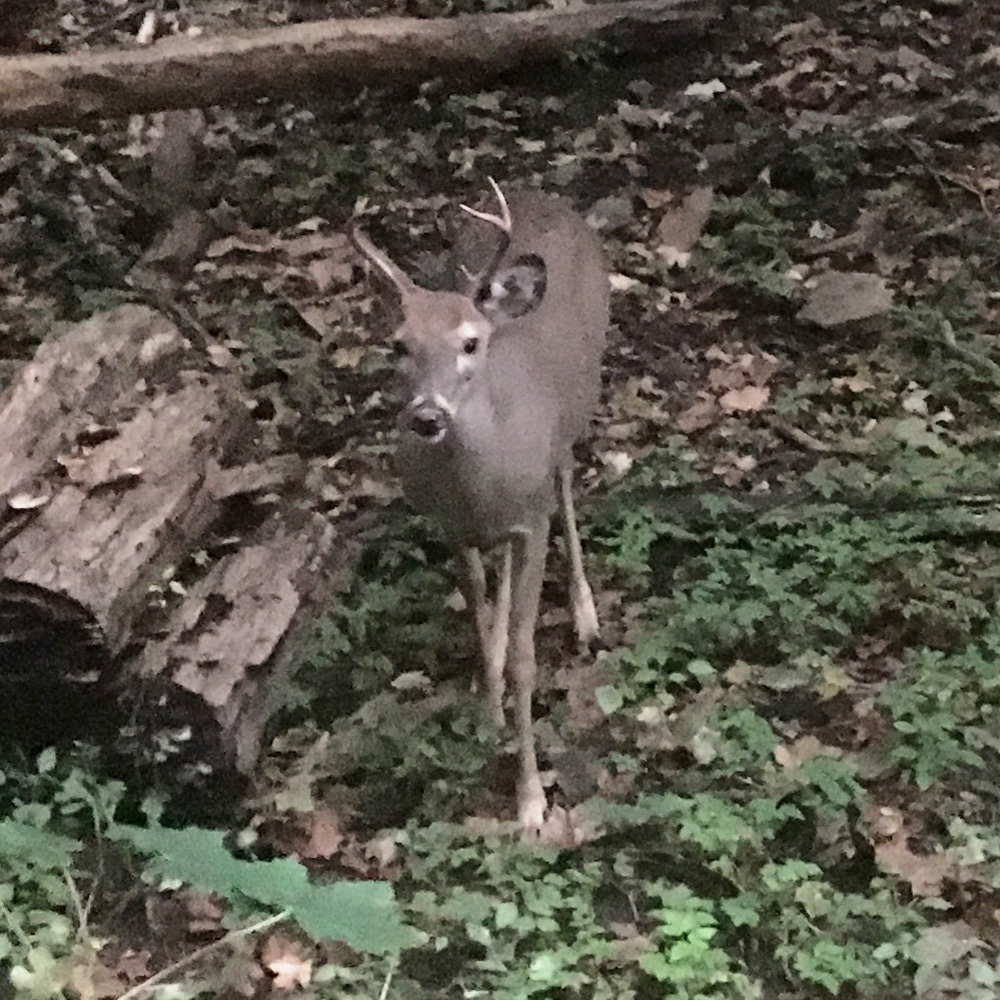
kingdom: Animalia
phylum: Chordata
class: Mammalia
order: Artiodactyla
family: Cervidae
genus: Odocoileus
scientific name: Odocoileus virginianus
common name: White-tailed deer
